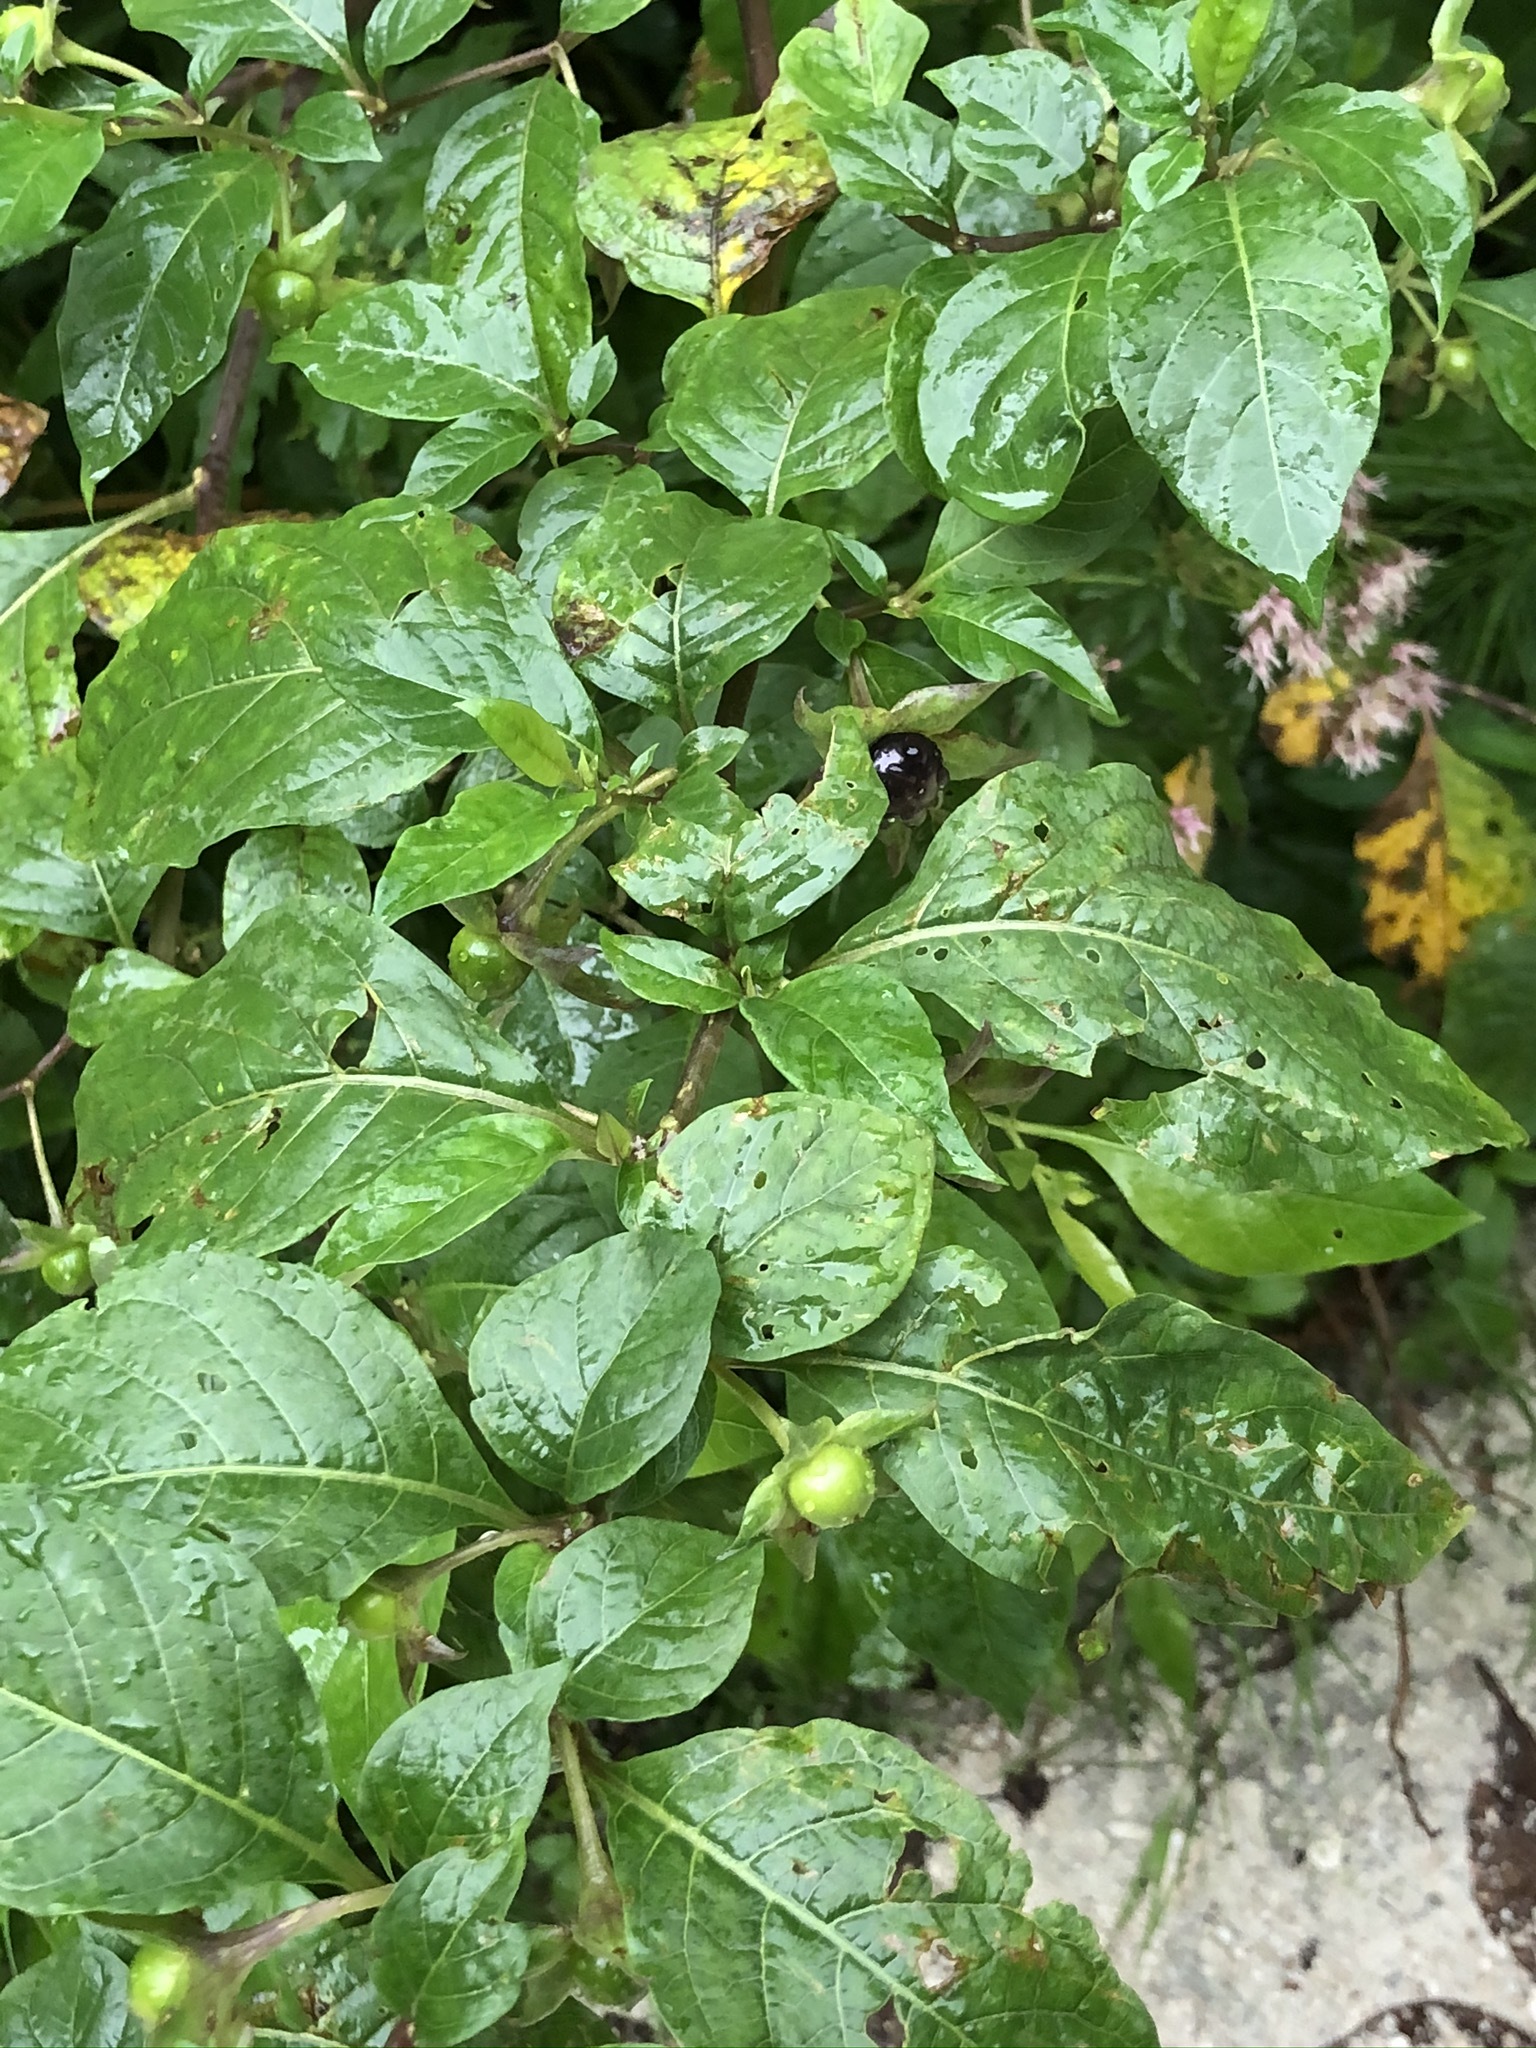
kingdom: Plantae
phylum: Tracheophyta
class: Magnoliopsida
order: Solanales
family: Solanaceae
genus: Atropa
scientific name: Atropa belladonna
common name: Deadly nightshade
